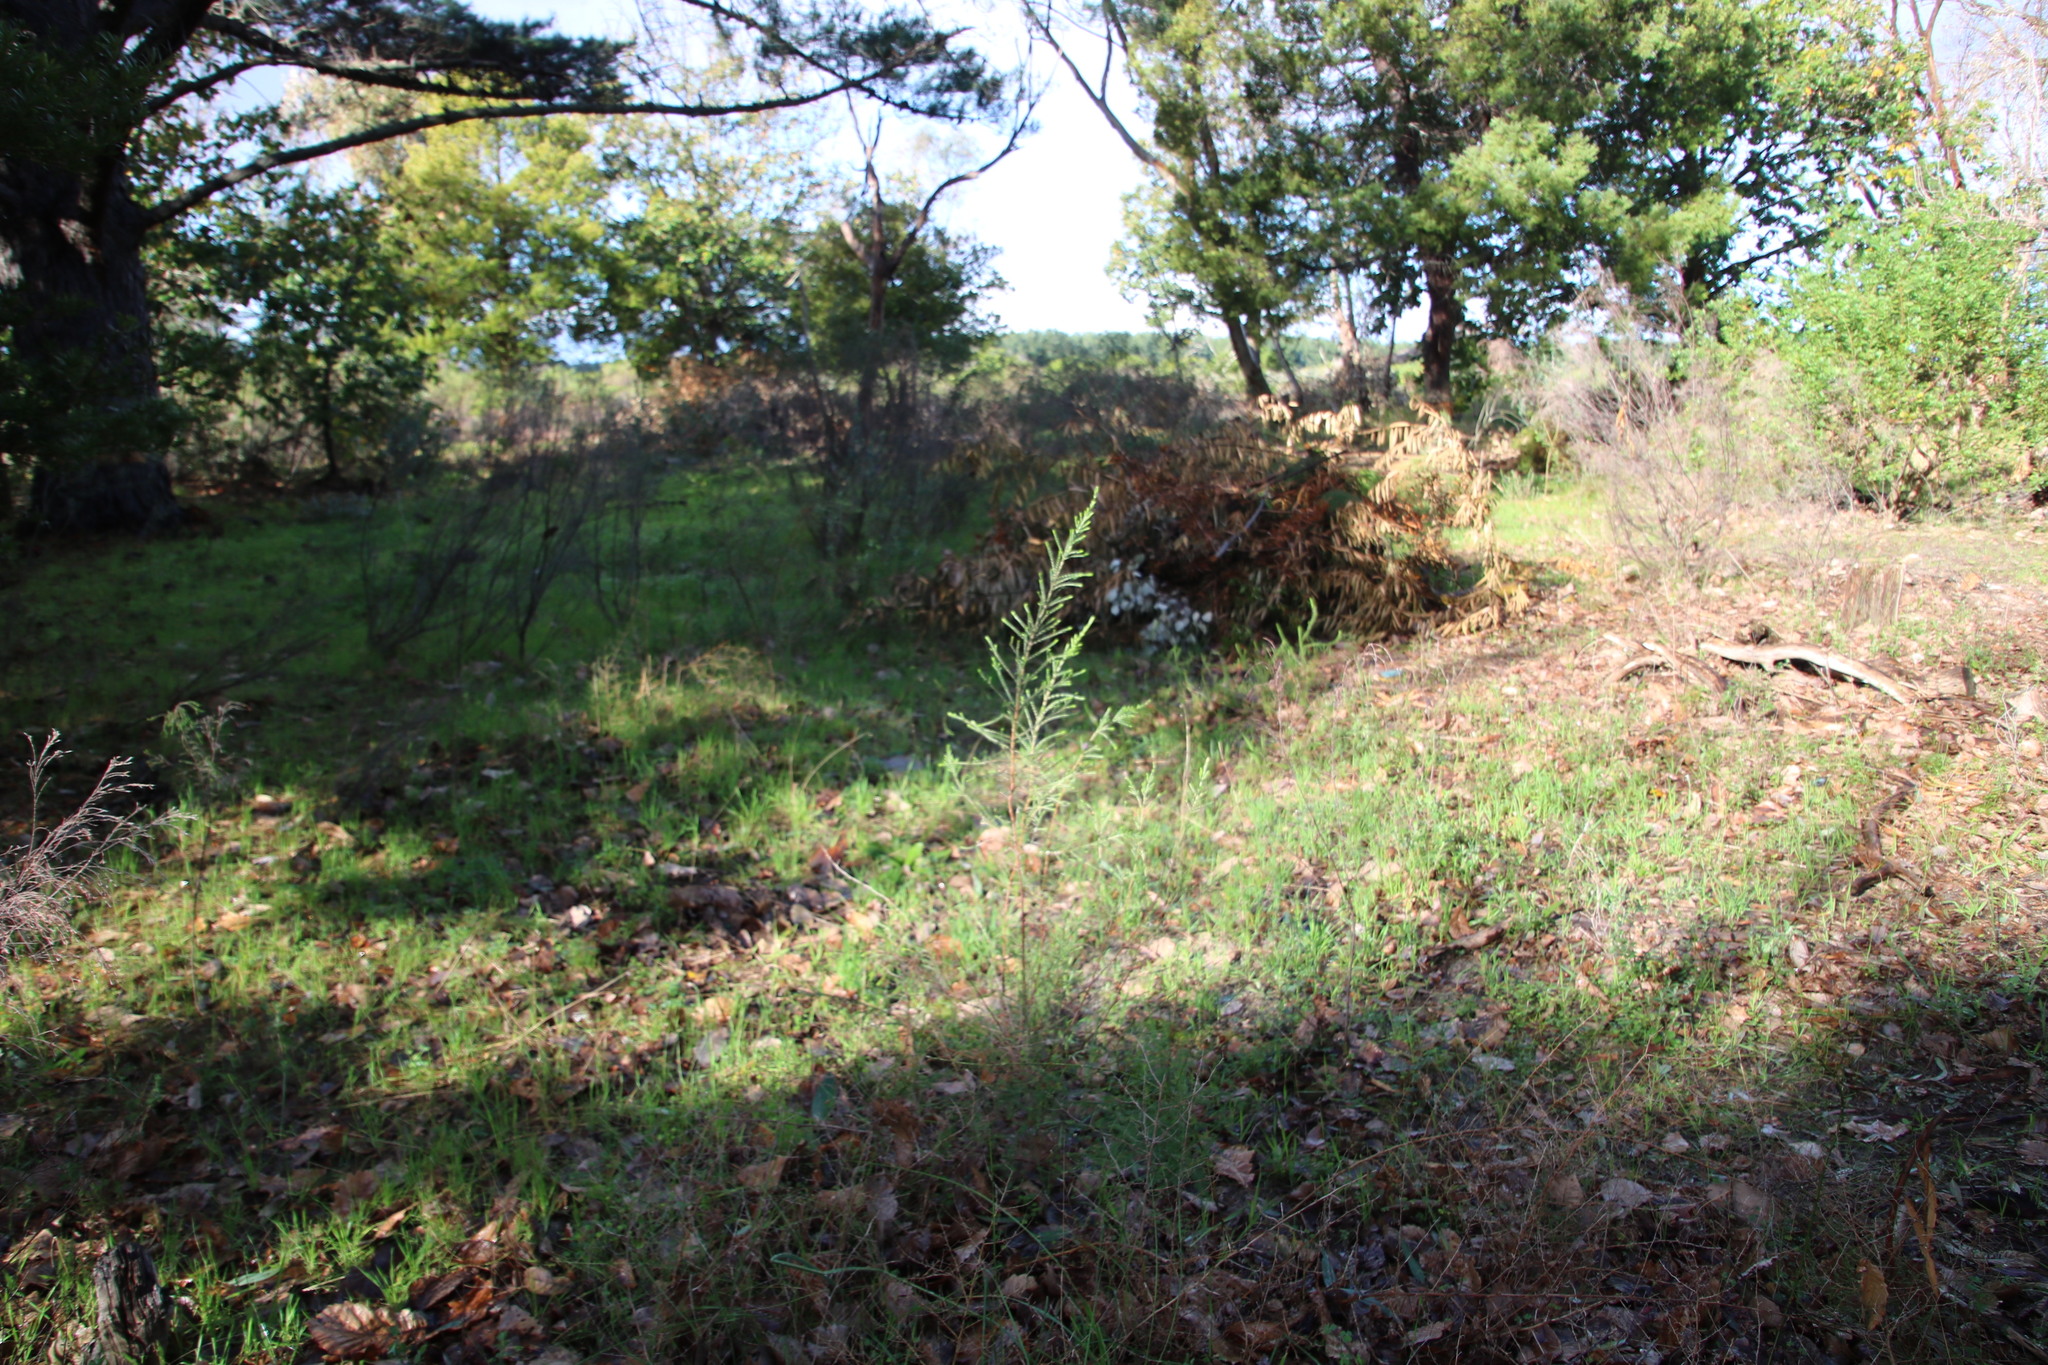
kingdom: Plantae
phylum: Tracheophyta
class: Magnoliopsida
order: Malvales
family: Thymelaeaceae
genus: Passerina
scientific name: Passerina corymbosa
